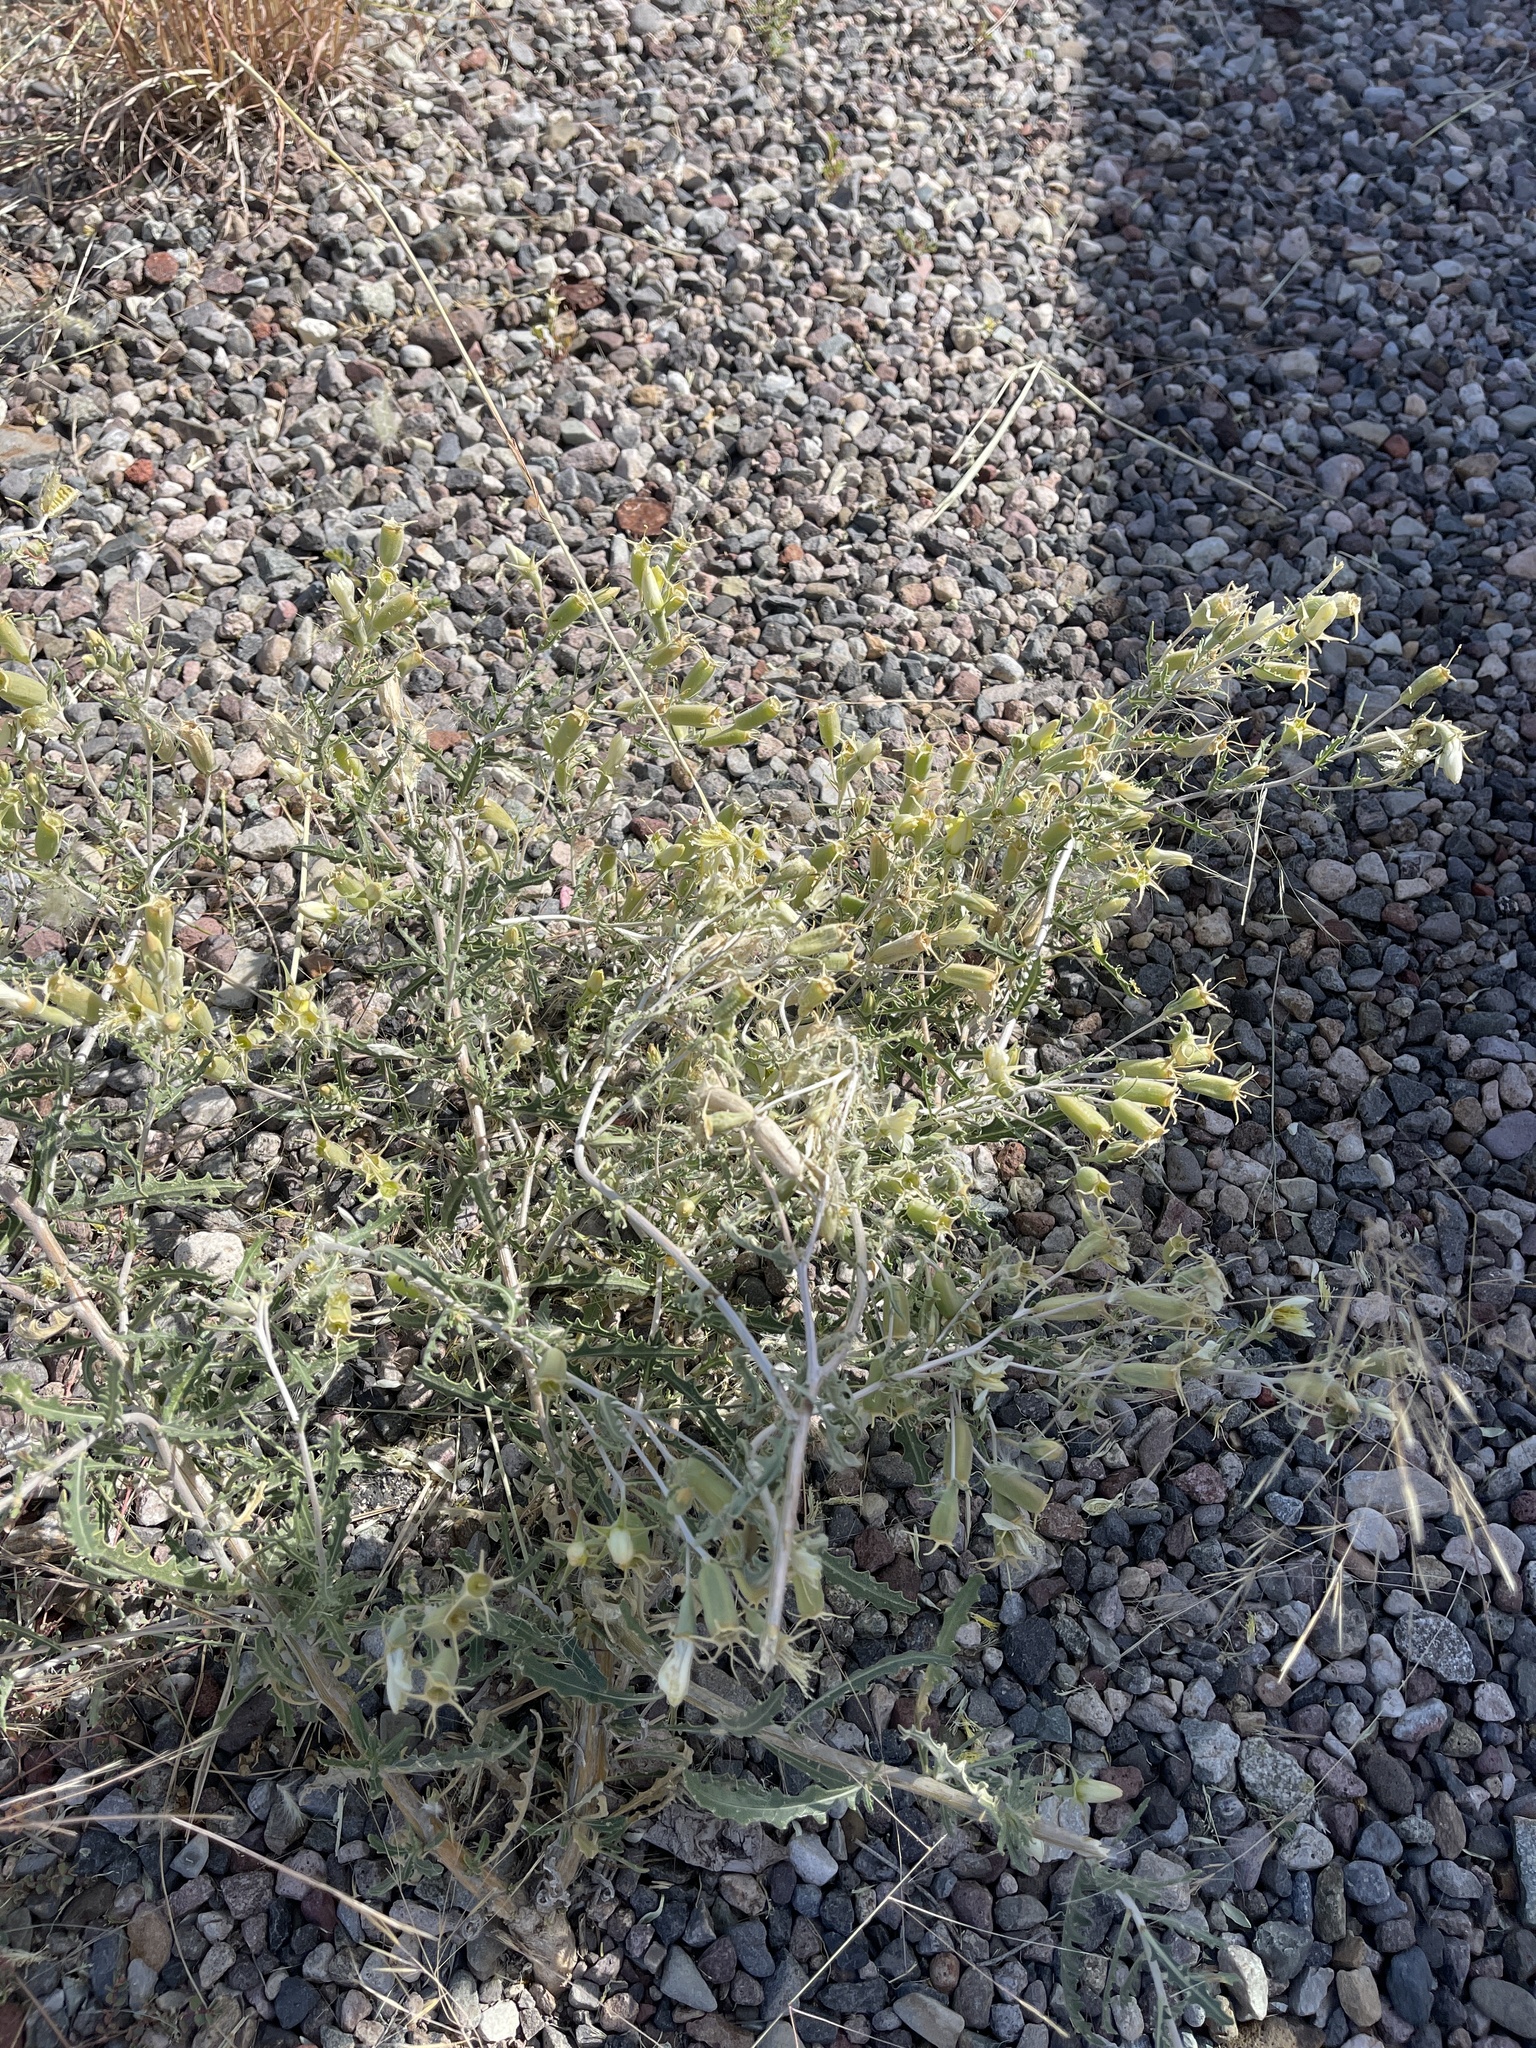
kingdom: Plantae
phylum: Tracheophyta
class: Magnoliopsida
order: Cornales
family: Loasaceae
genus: Mentzelia
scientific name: Mentzelia procera
